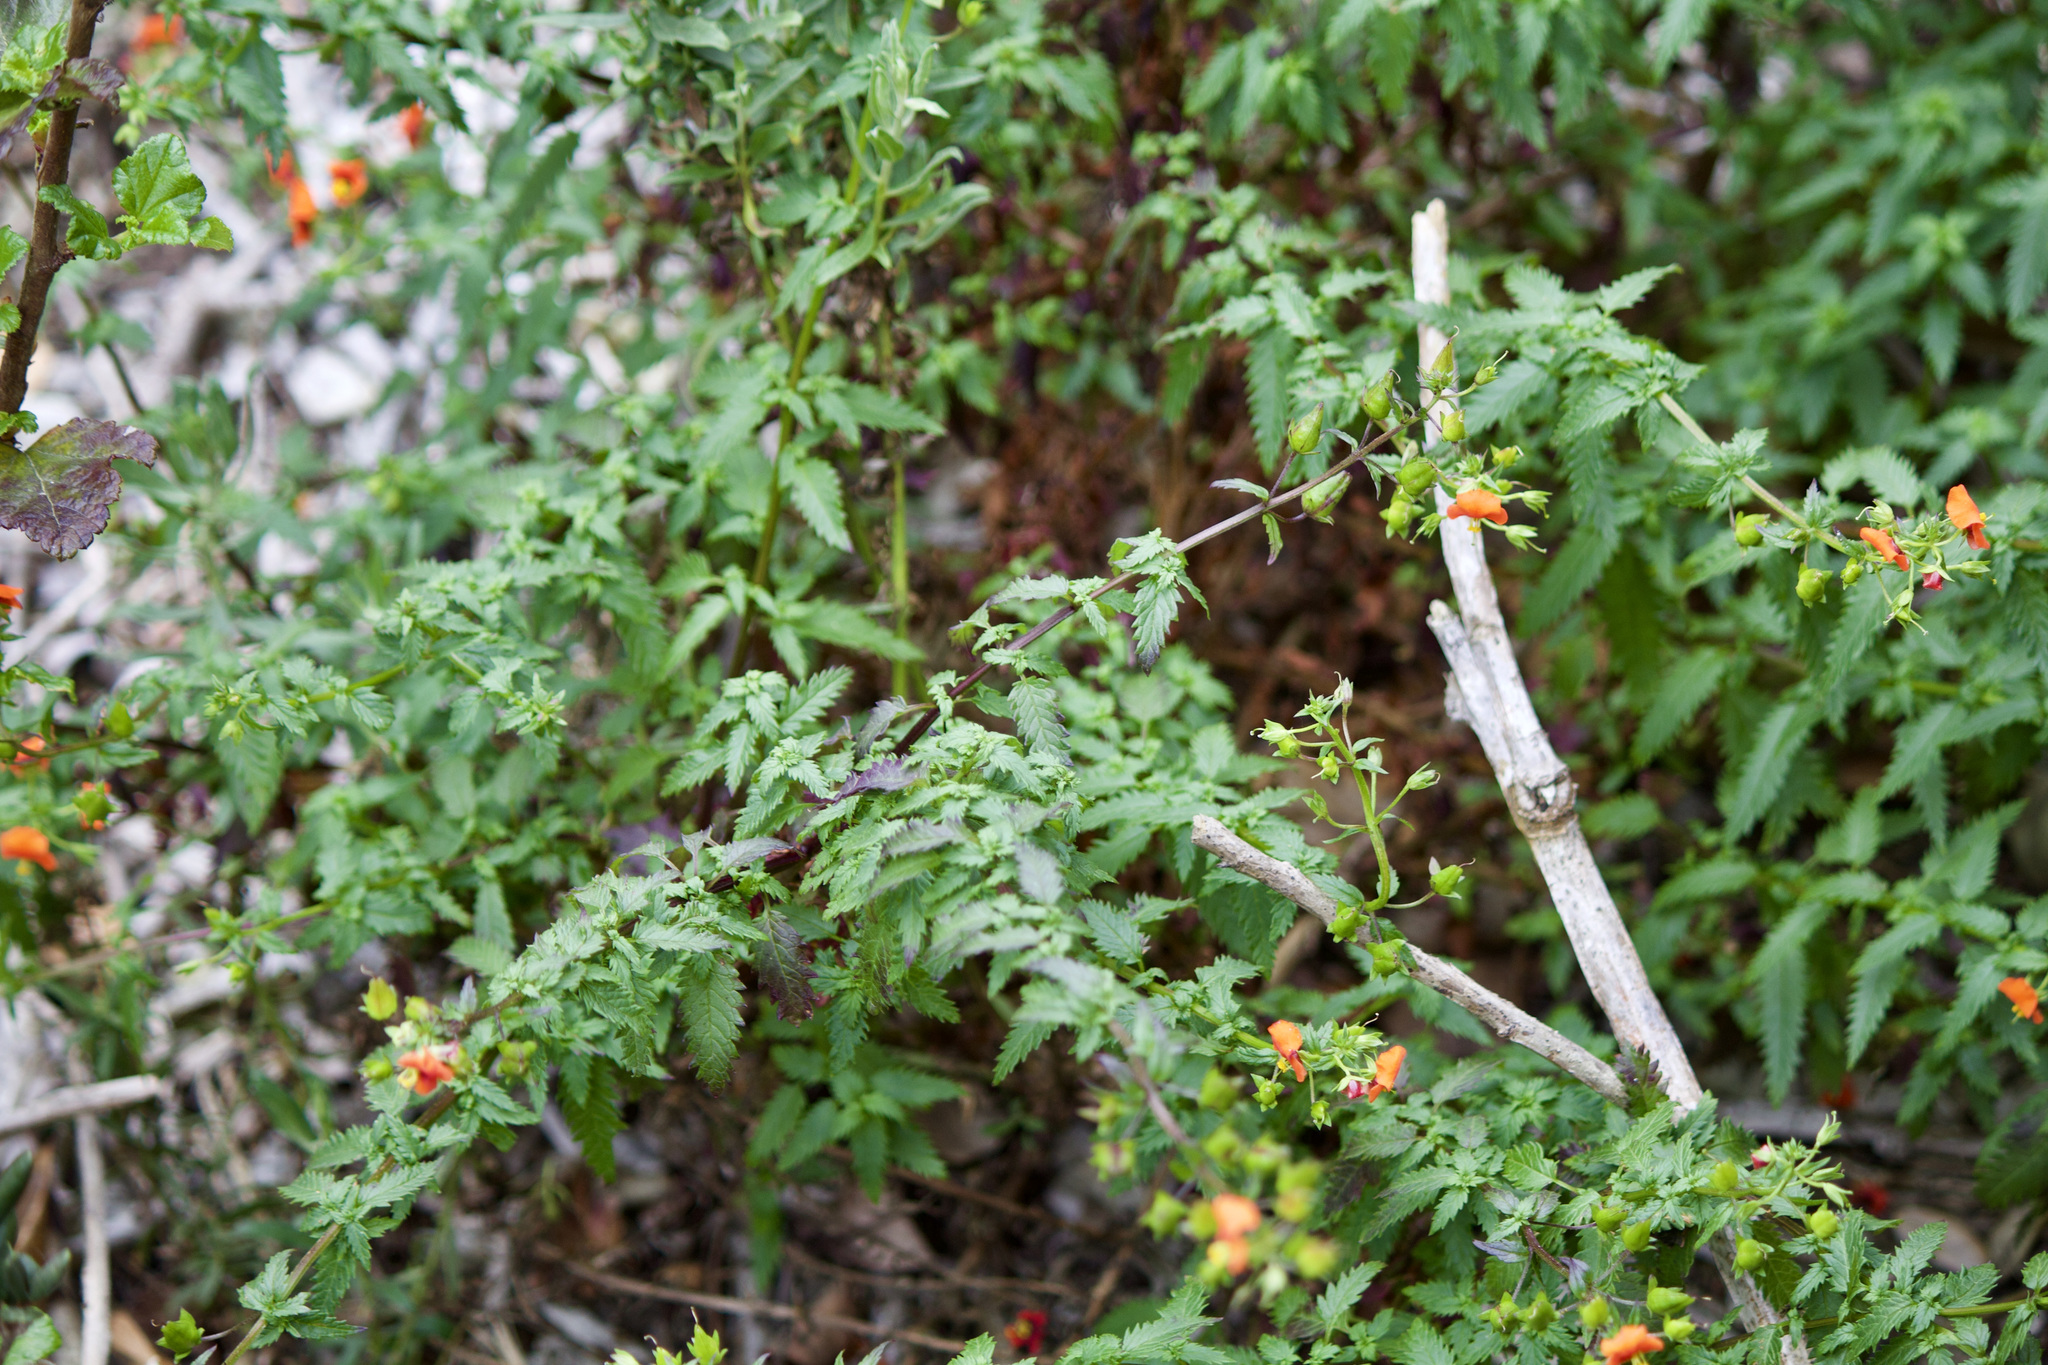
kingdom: Plantae
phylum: Tracheophyta
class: Magnoliopsida
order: Lamiales
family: Scrophulariaceae
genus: Alonsoa
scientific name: Alonsoa meridionalis
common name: Maskflower
